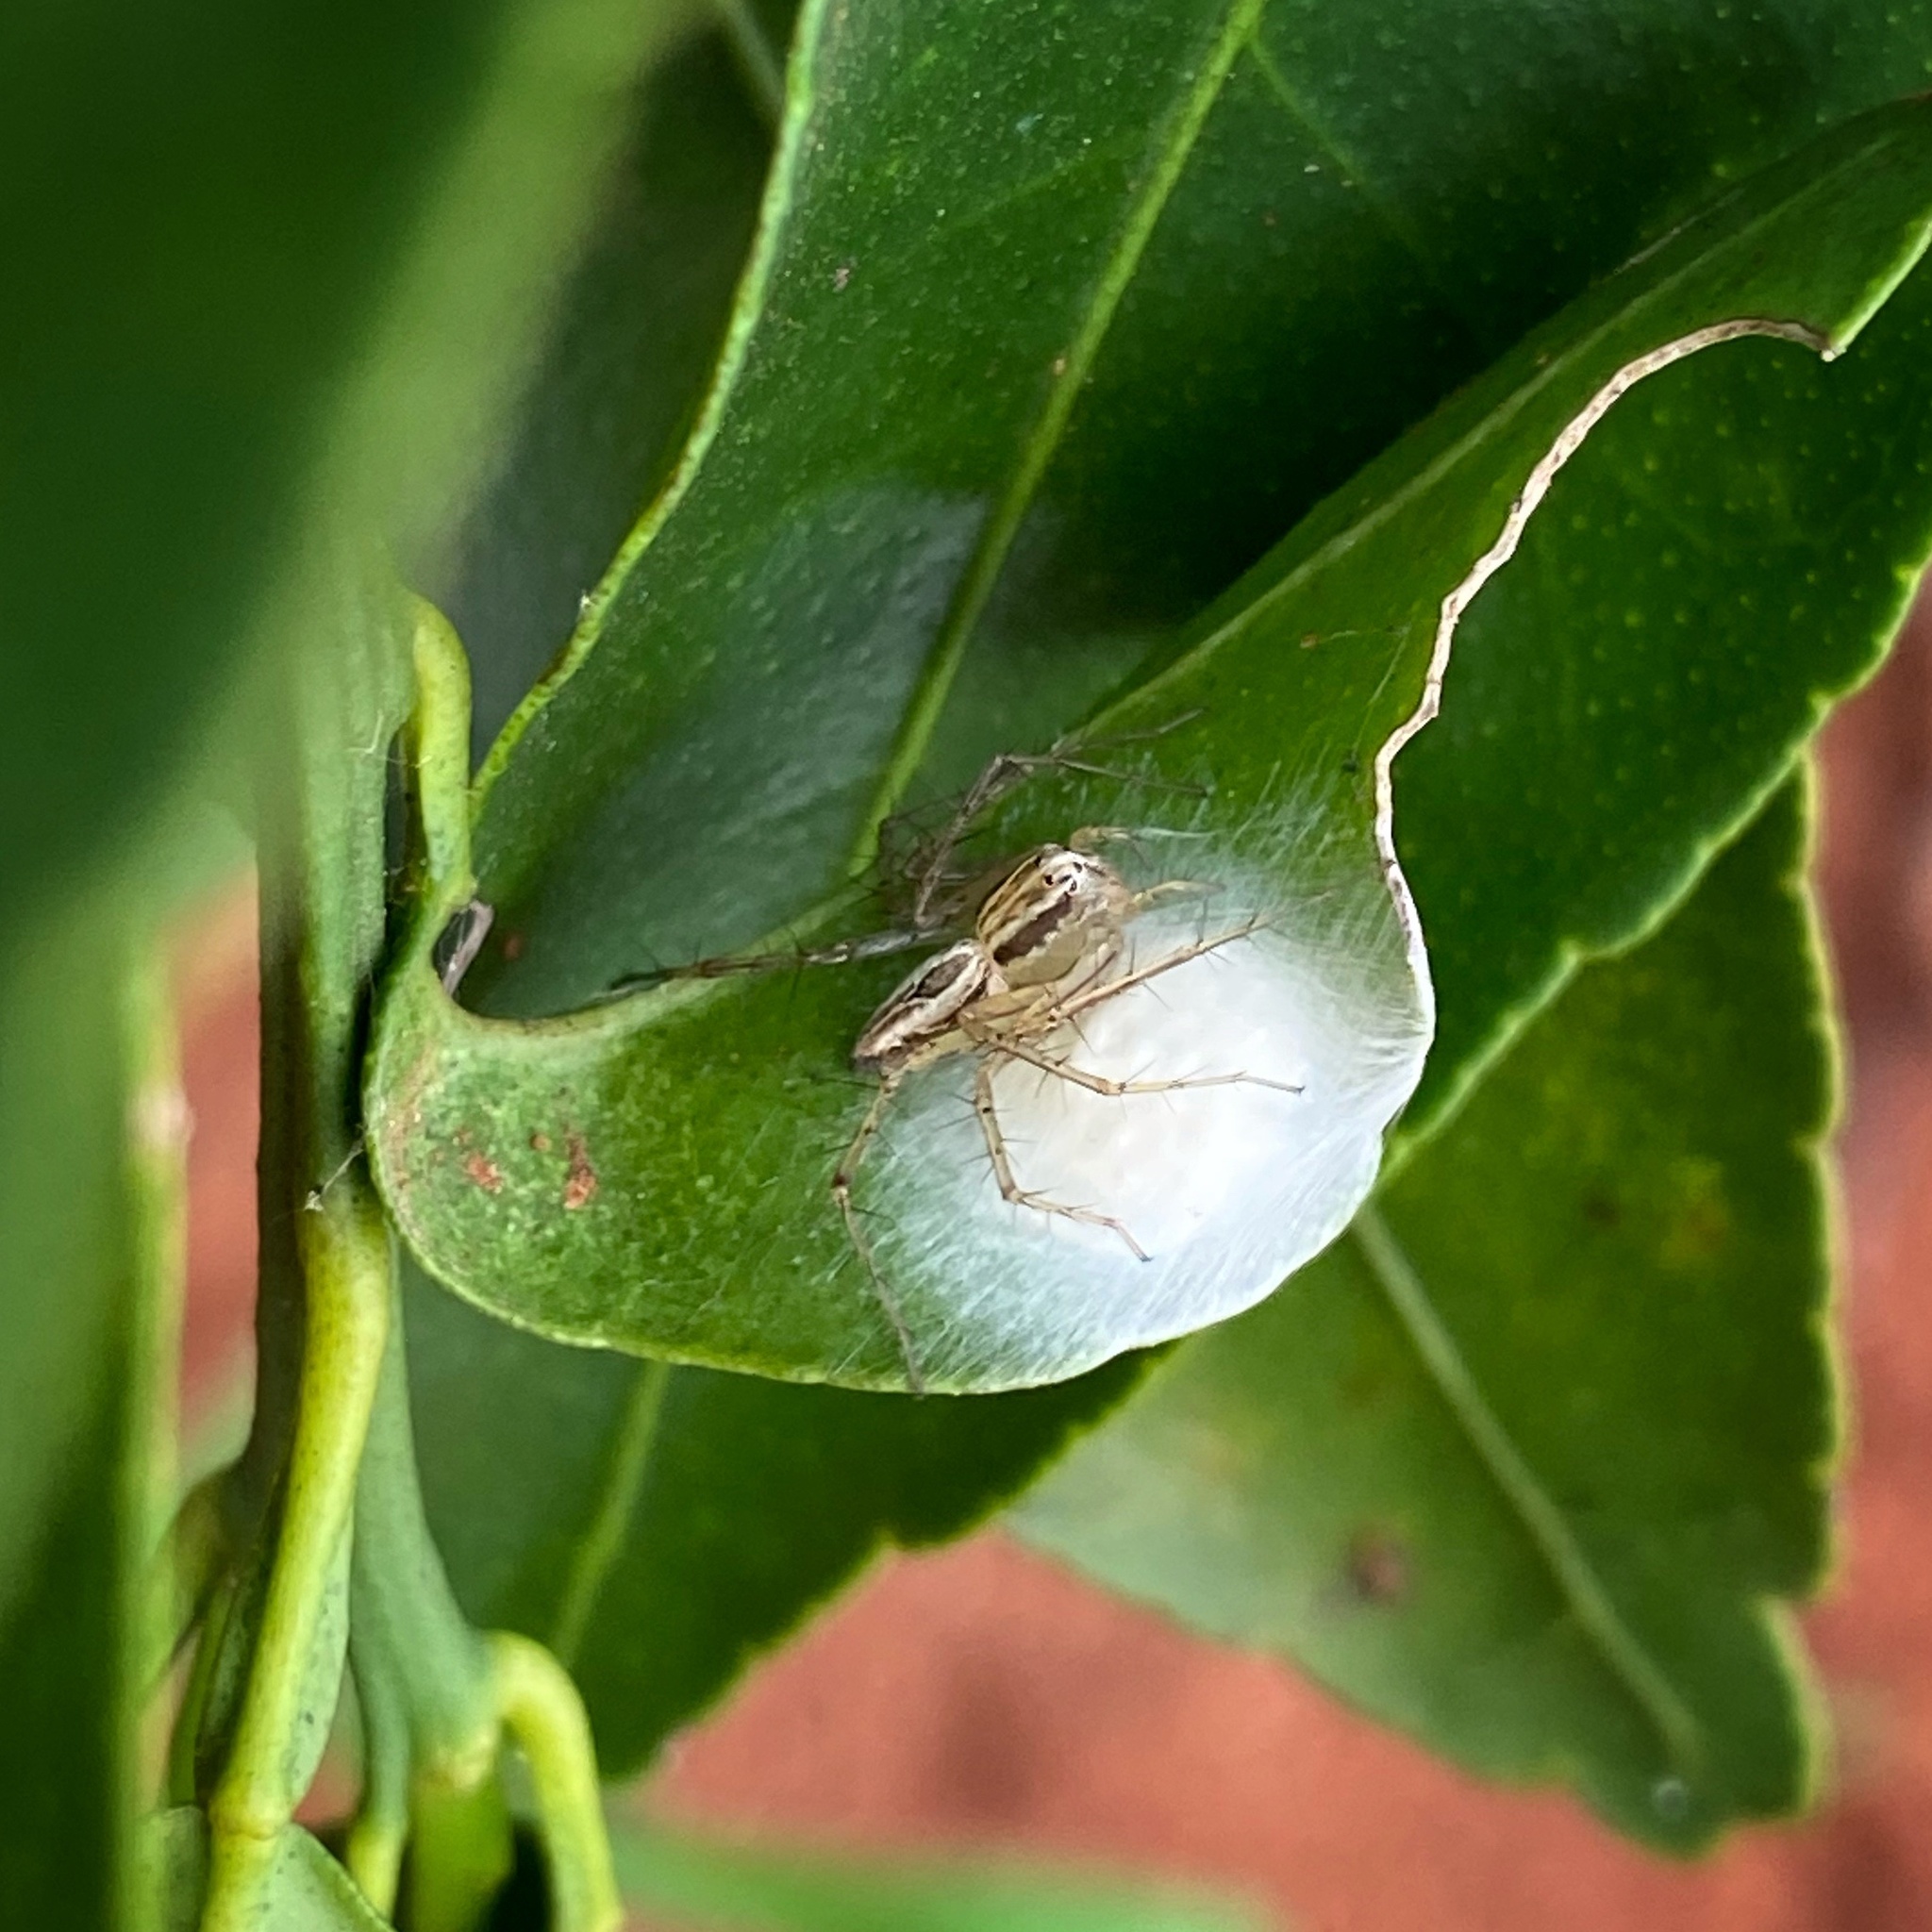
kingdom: Animalia
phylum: Arthropoda
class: Arachnida
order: Araneae
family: Oxyopidae
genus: Oxyopes
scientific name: Oxyopes salticus
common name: Lynx spiders
